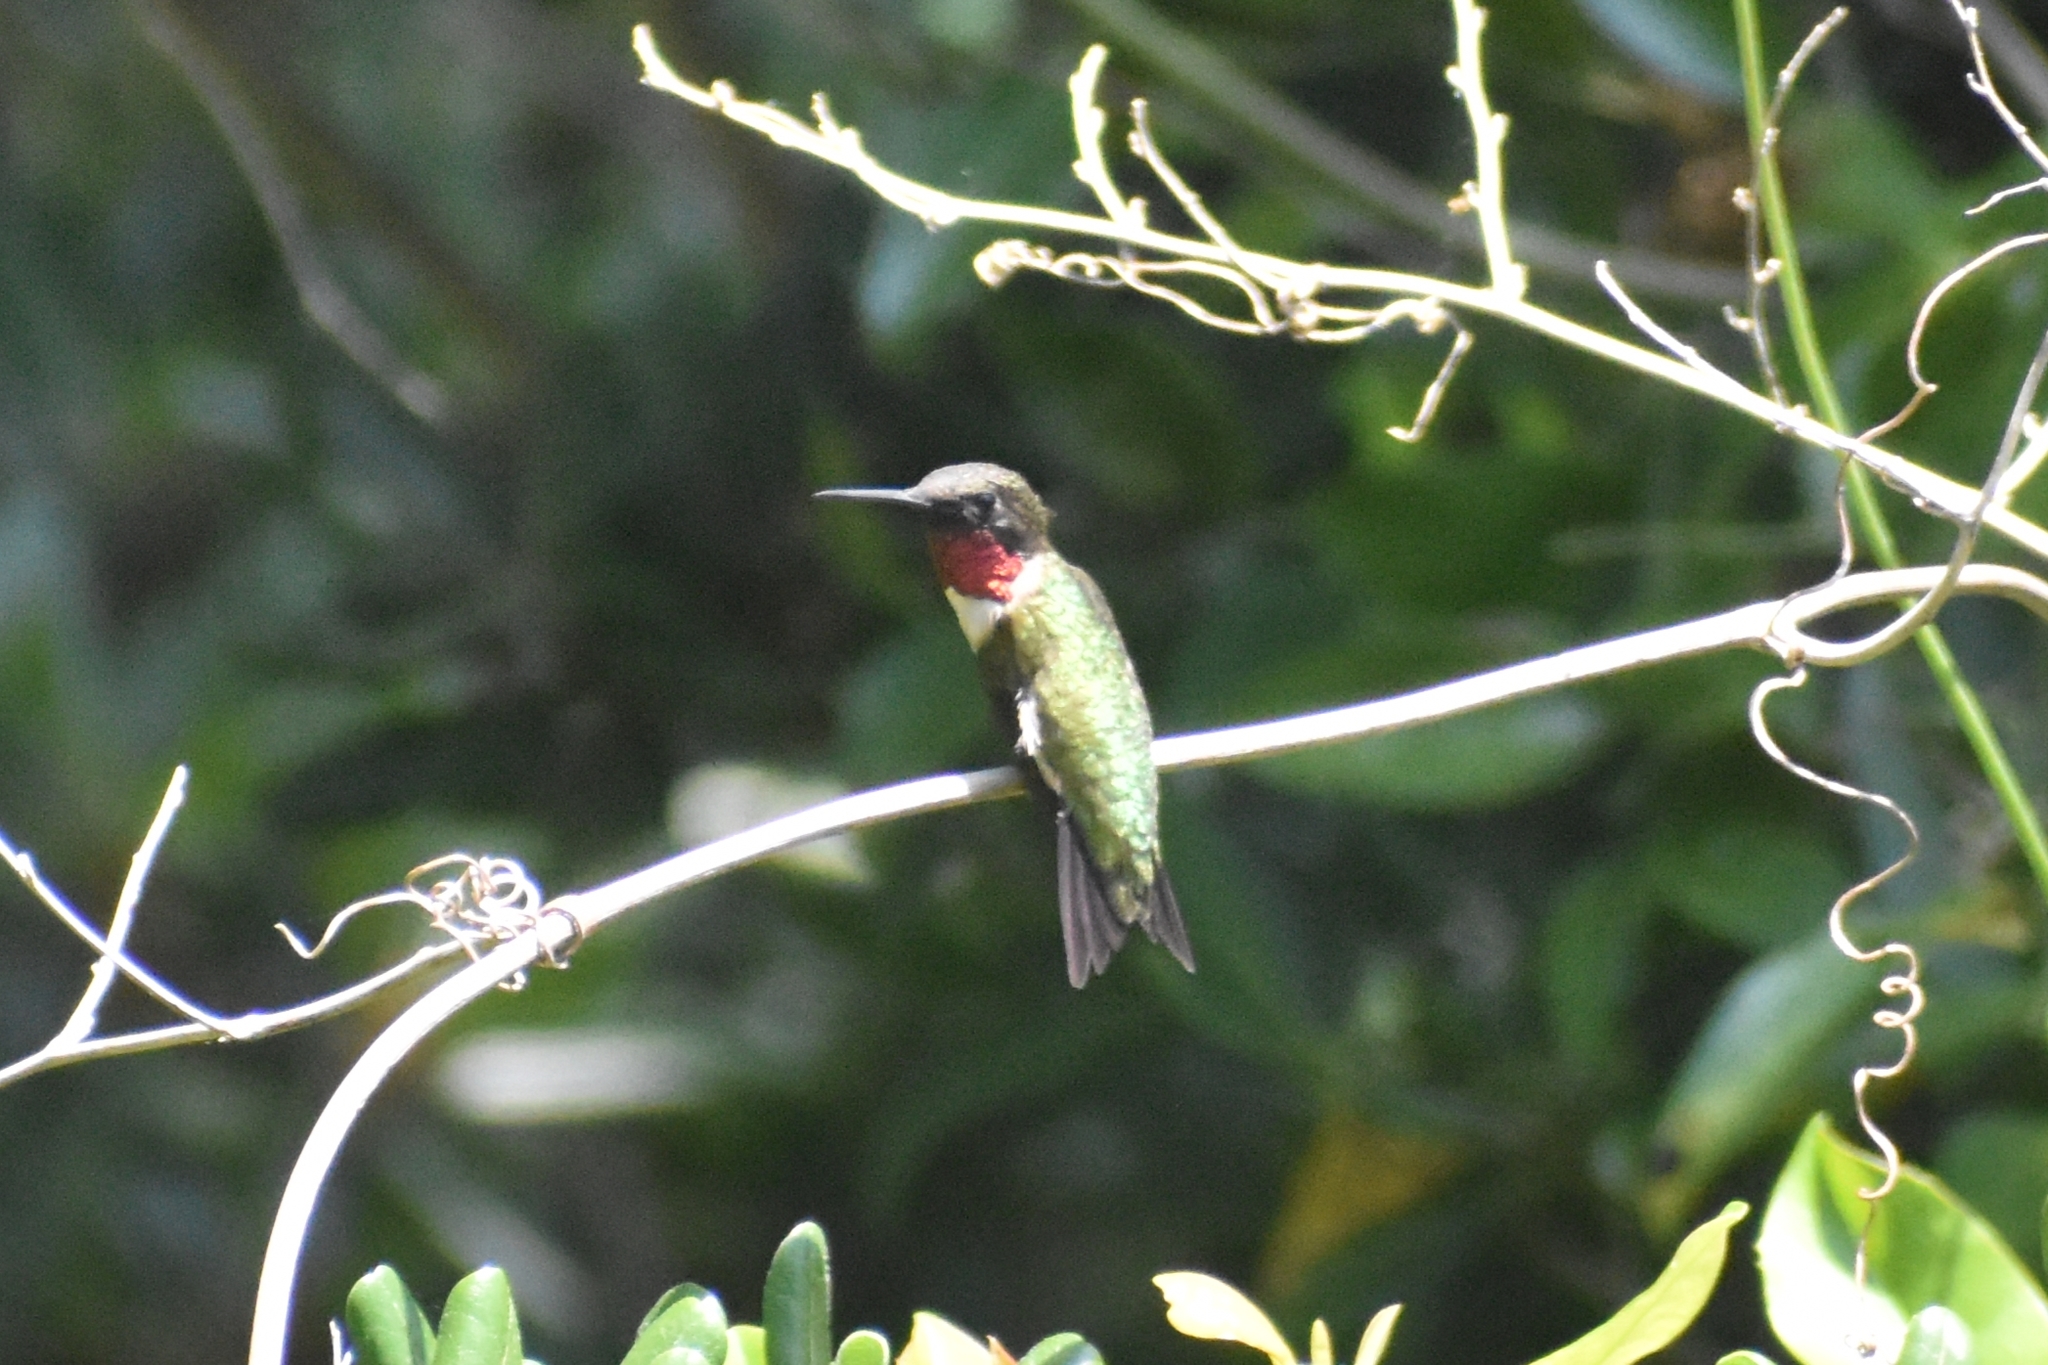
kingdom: Animalia
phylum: Chordata
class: Aves
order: Apodiformes
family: Trochilidae
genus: Archilochus
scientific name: Archilochus colubris
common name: Ruby-throated hummingbird
